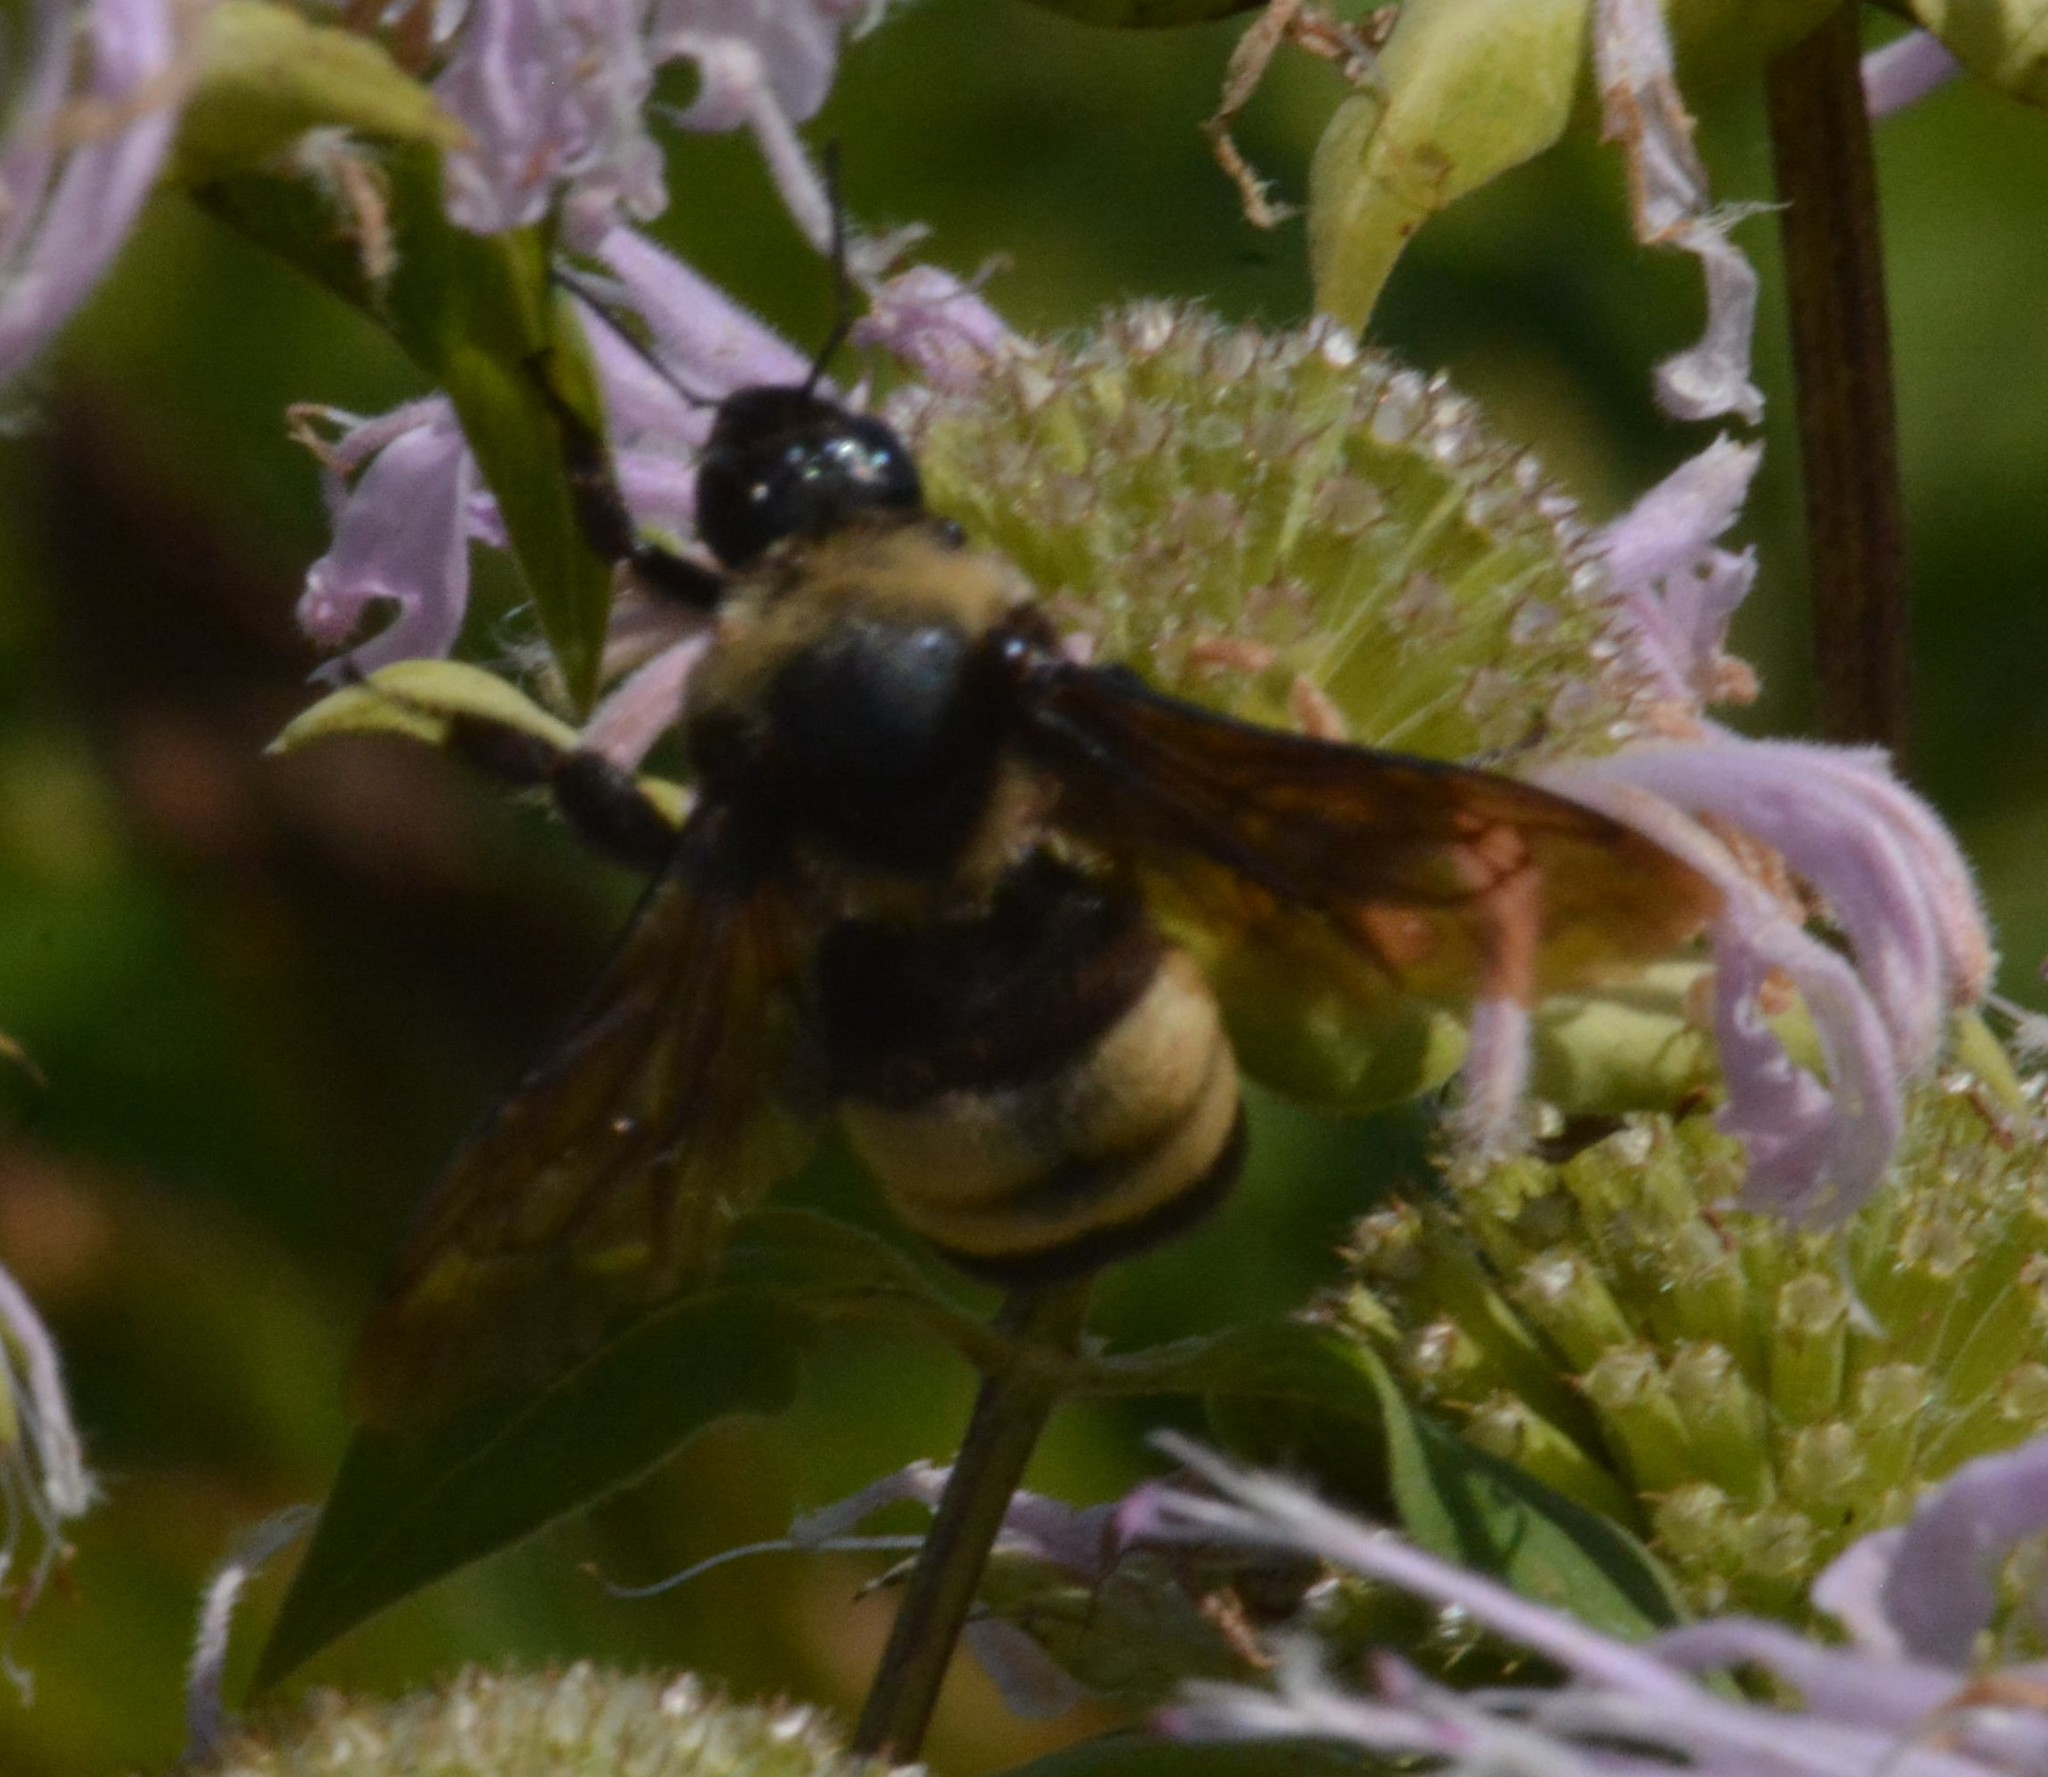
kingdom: Animalia
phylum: Arthropoda
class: Insecta
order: Hymenoptera
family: Apidae
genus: Bombus
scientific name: Bombus auricomus
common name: Black and gold bumble bee
